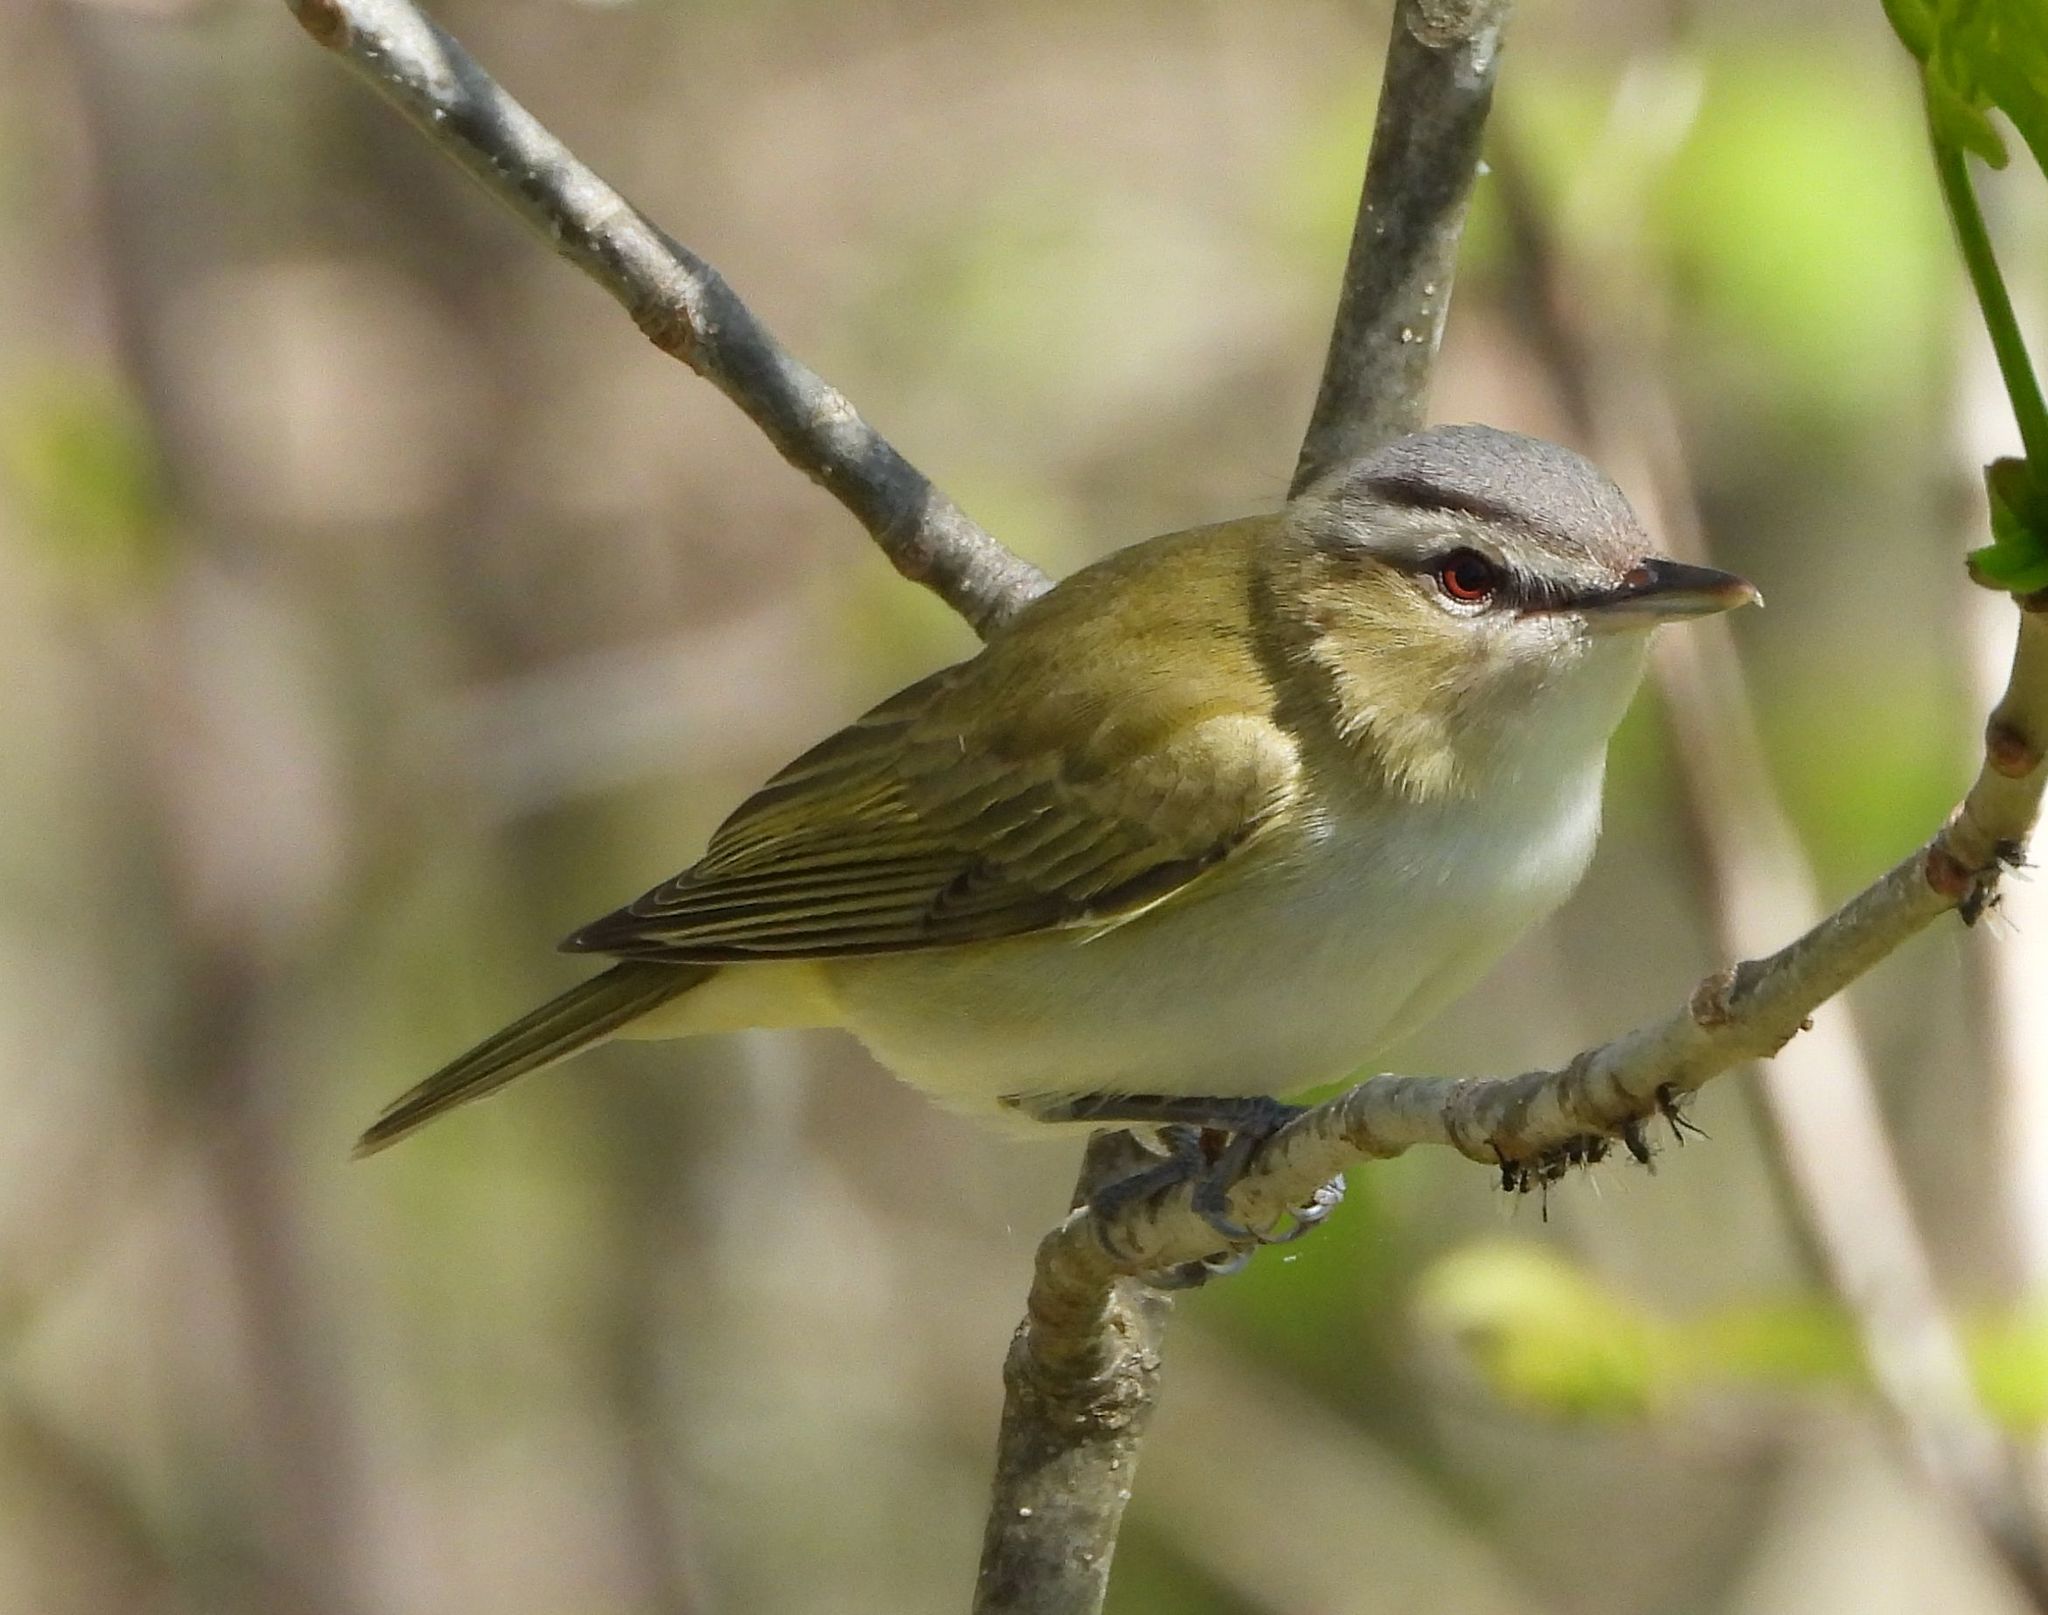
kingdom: Animalia
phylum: Chordata
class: Aves
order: Passeriformes
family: Vireonidae
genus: Vireo
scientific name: Vireo olivaceus
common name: Red-eyed vireo
